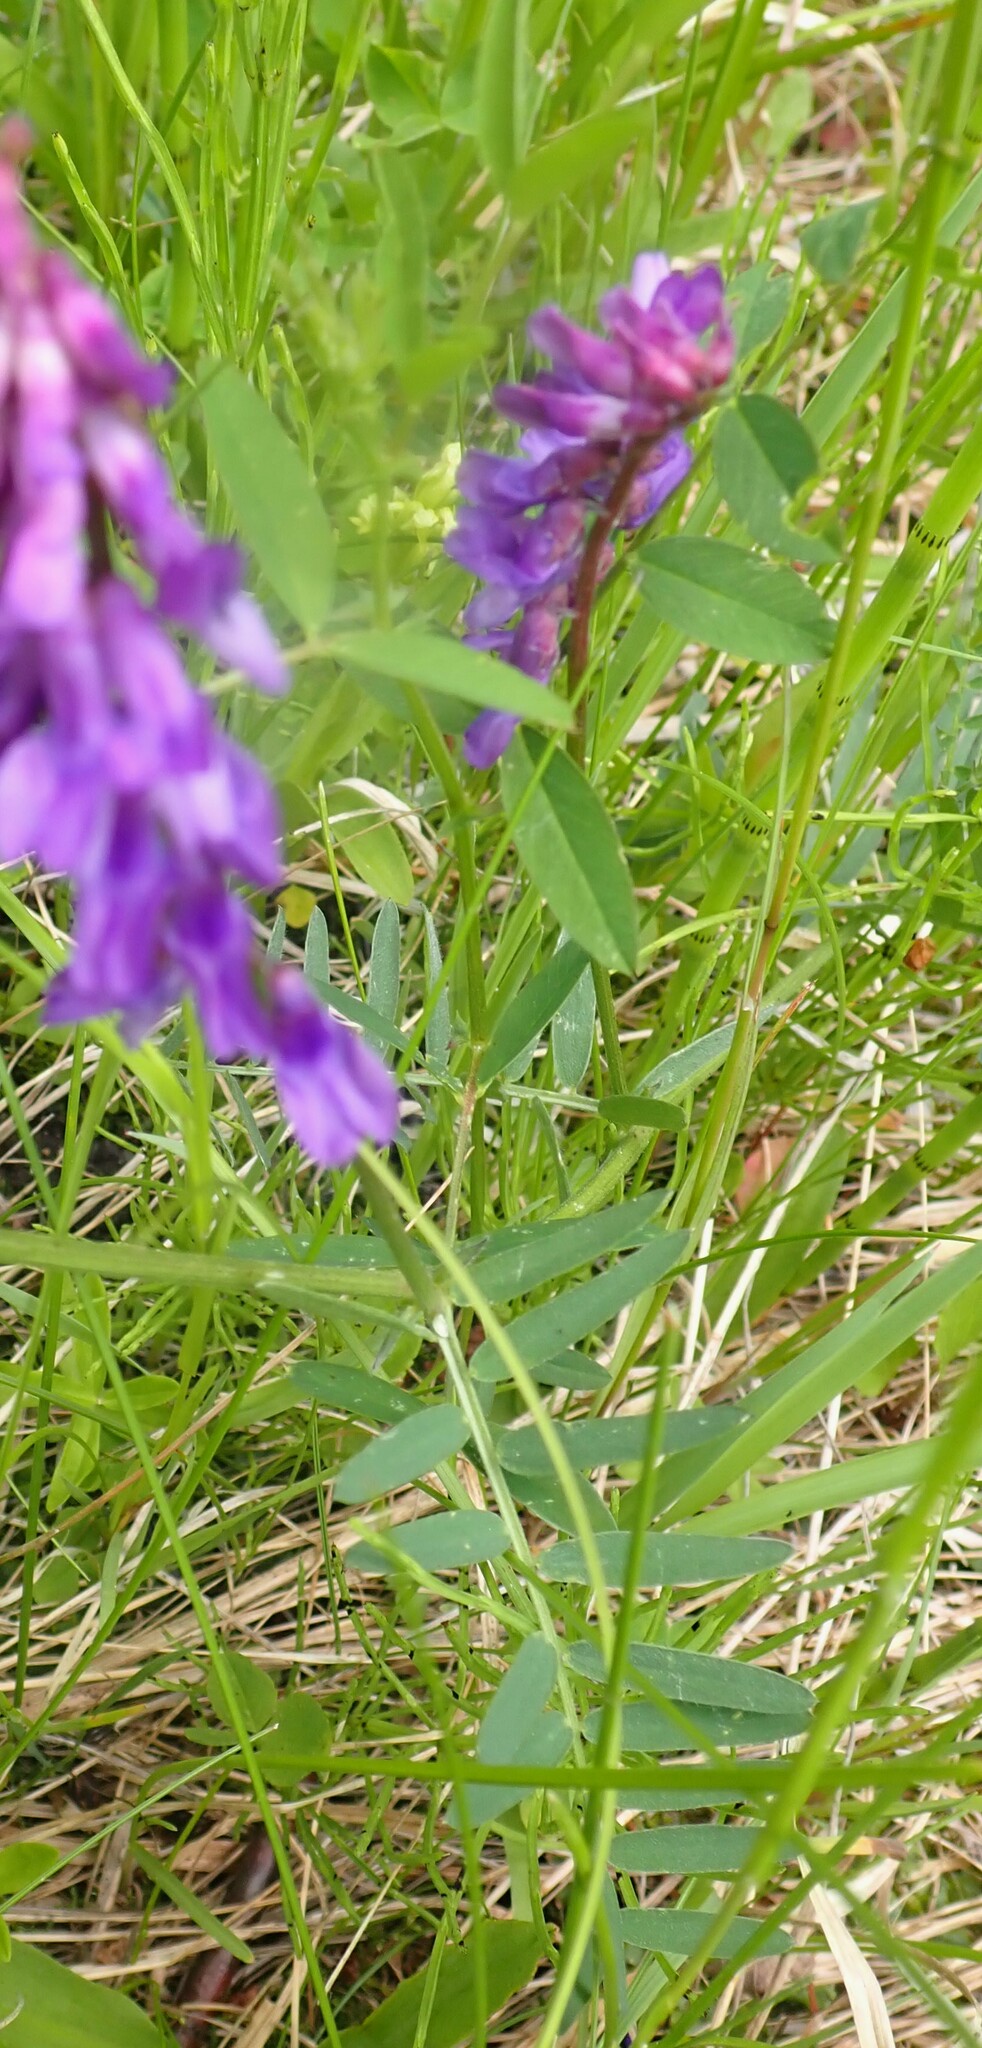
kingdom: Plantae
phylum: Tracheophyta
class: Magnoliopsida
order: Fabales
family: Fabaceae
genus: Vicia
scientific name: Vicia cracca
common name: Bird vetch
